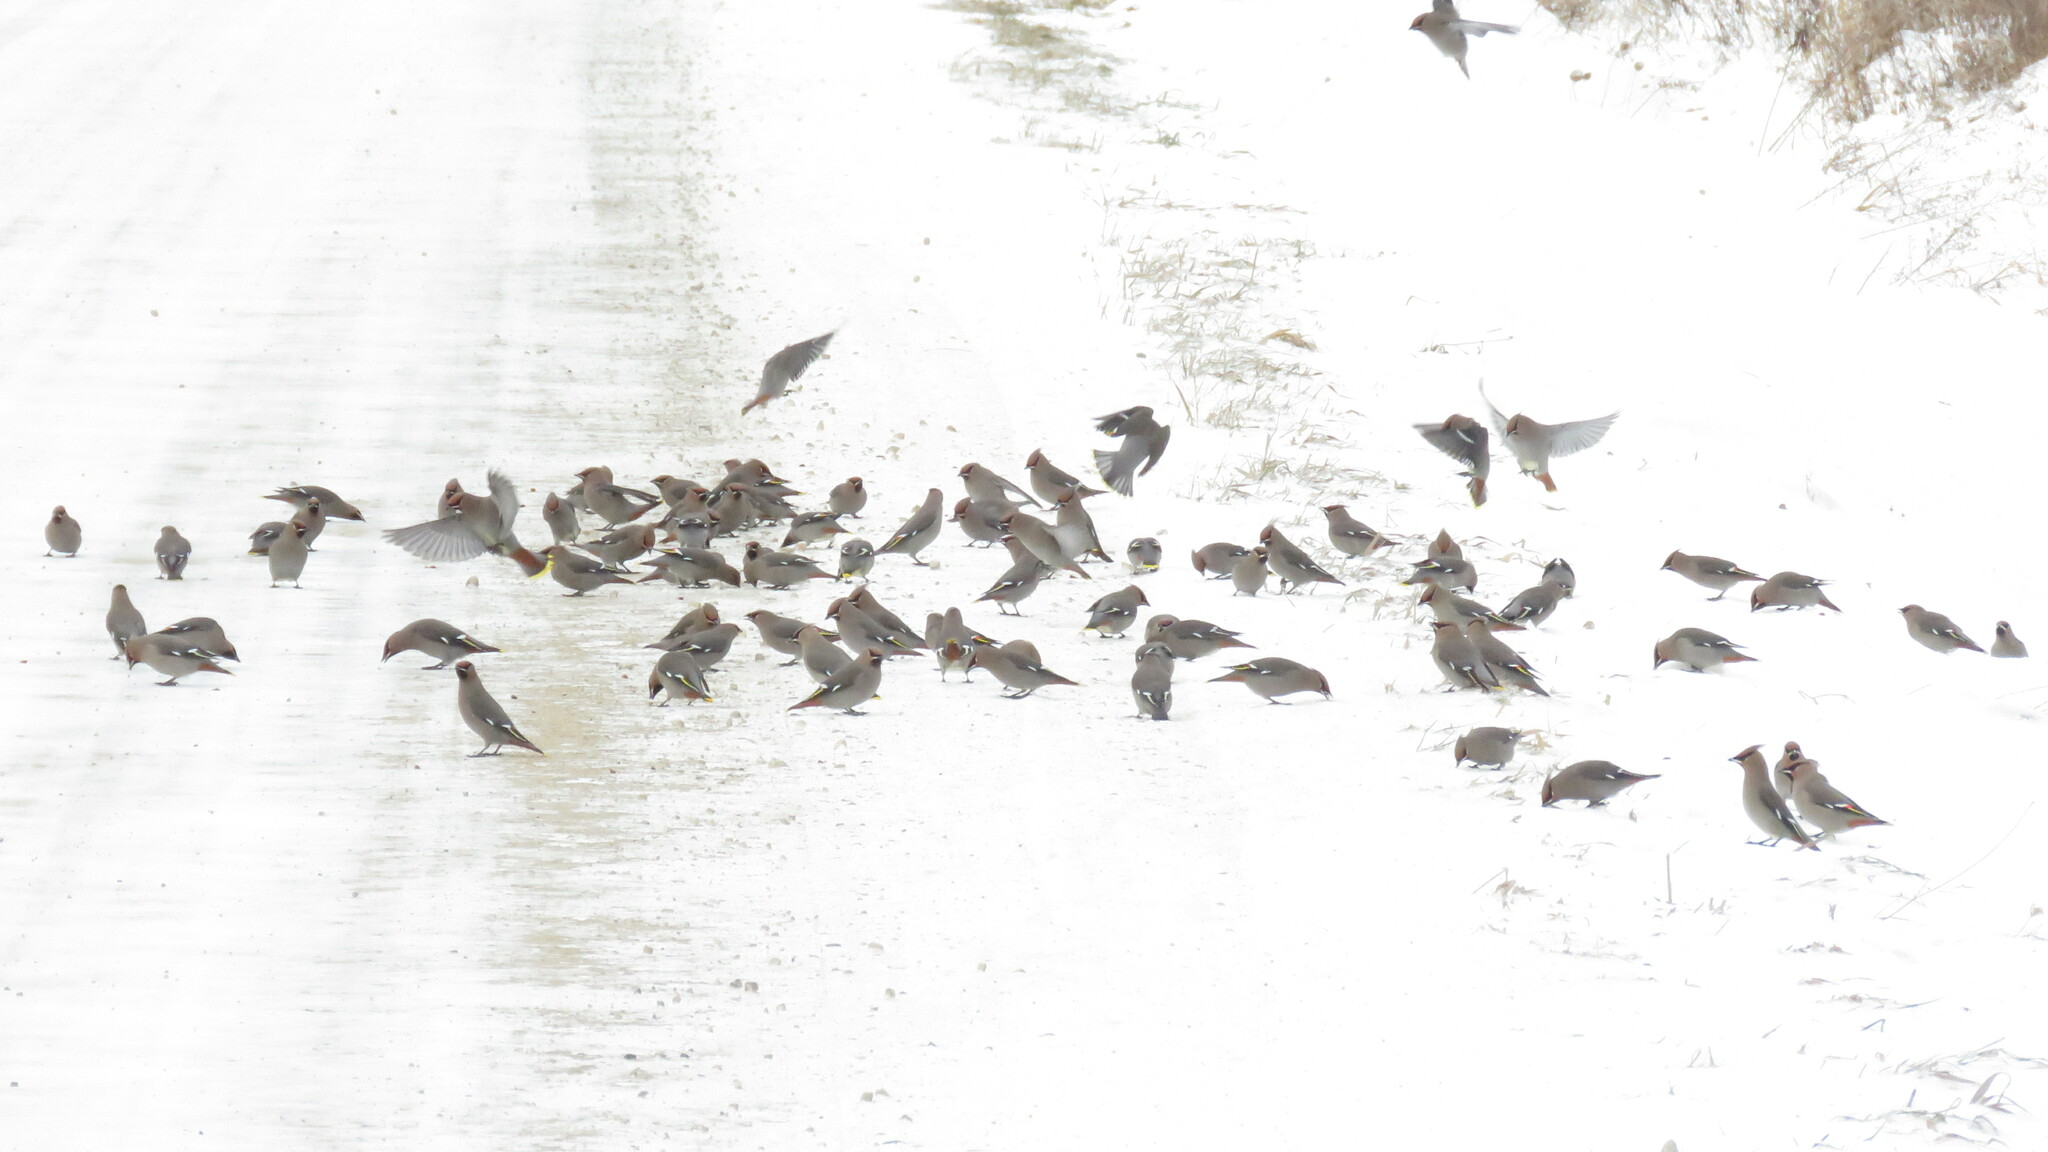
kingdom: Animalia
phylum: Chordata
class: Aves
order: Passeriformes
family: Bombycillidae
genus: Bombycilla
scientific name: Bombycilla garrulus
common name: Bohemian waxwing
